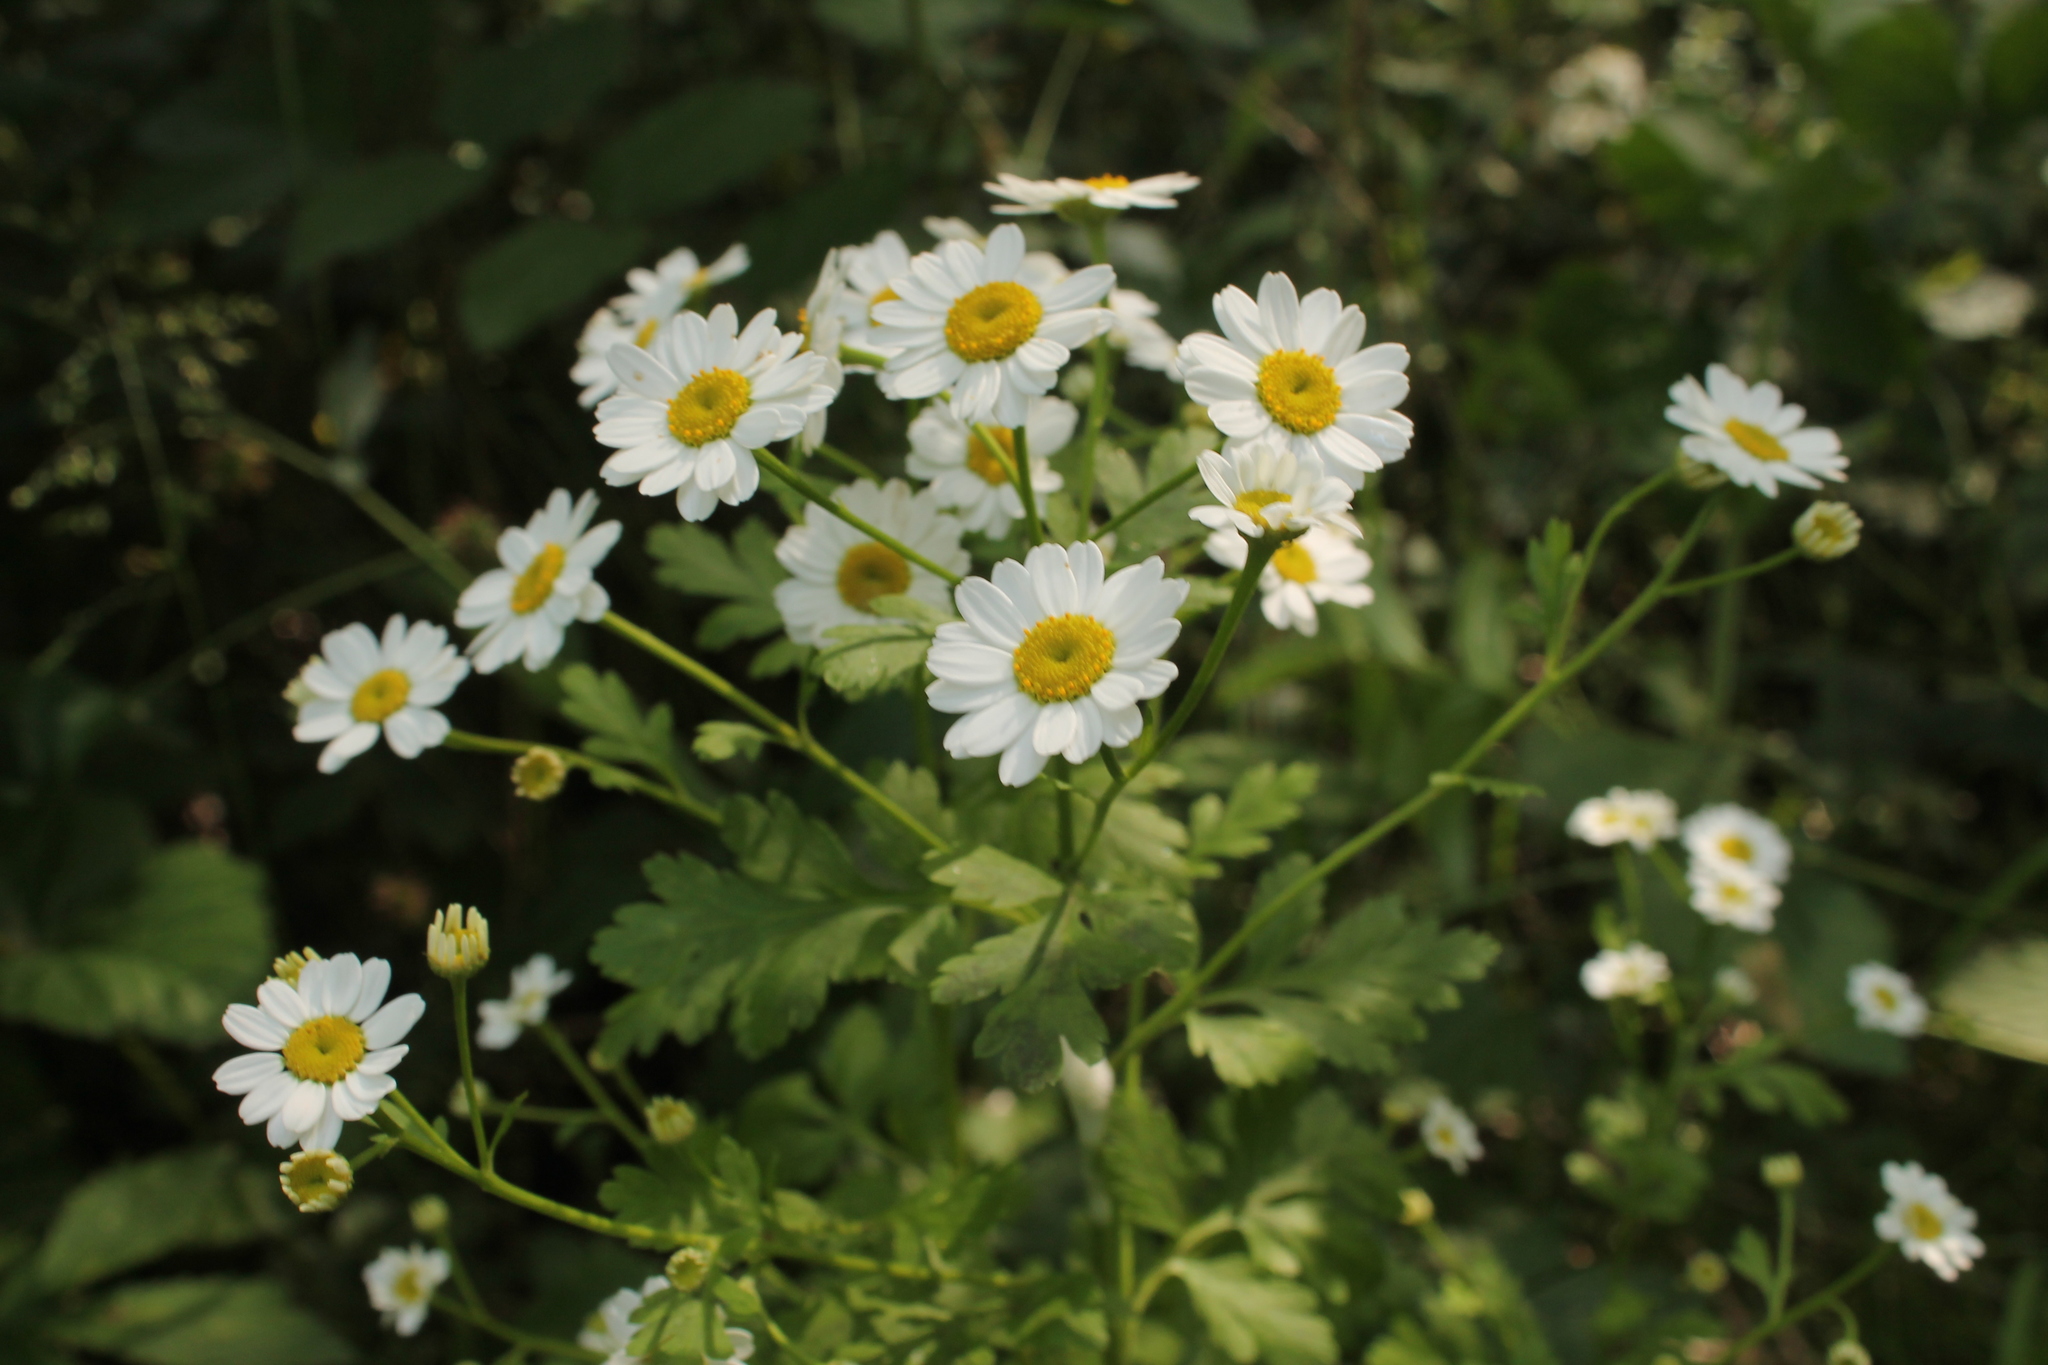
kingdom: Plantae
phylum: Tracheophyta
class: Magnoliopsida
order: Asterales
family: Asteraceae
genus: Tanacetum
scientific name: Tanacetum parthenium
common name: Feverfew
